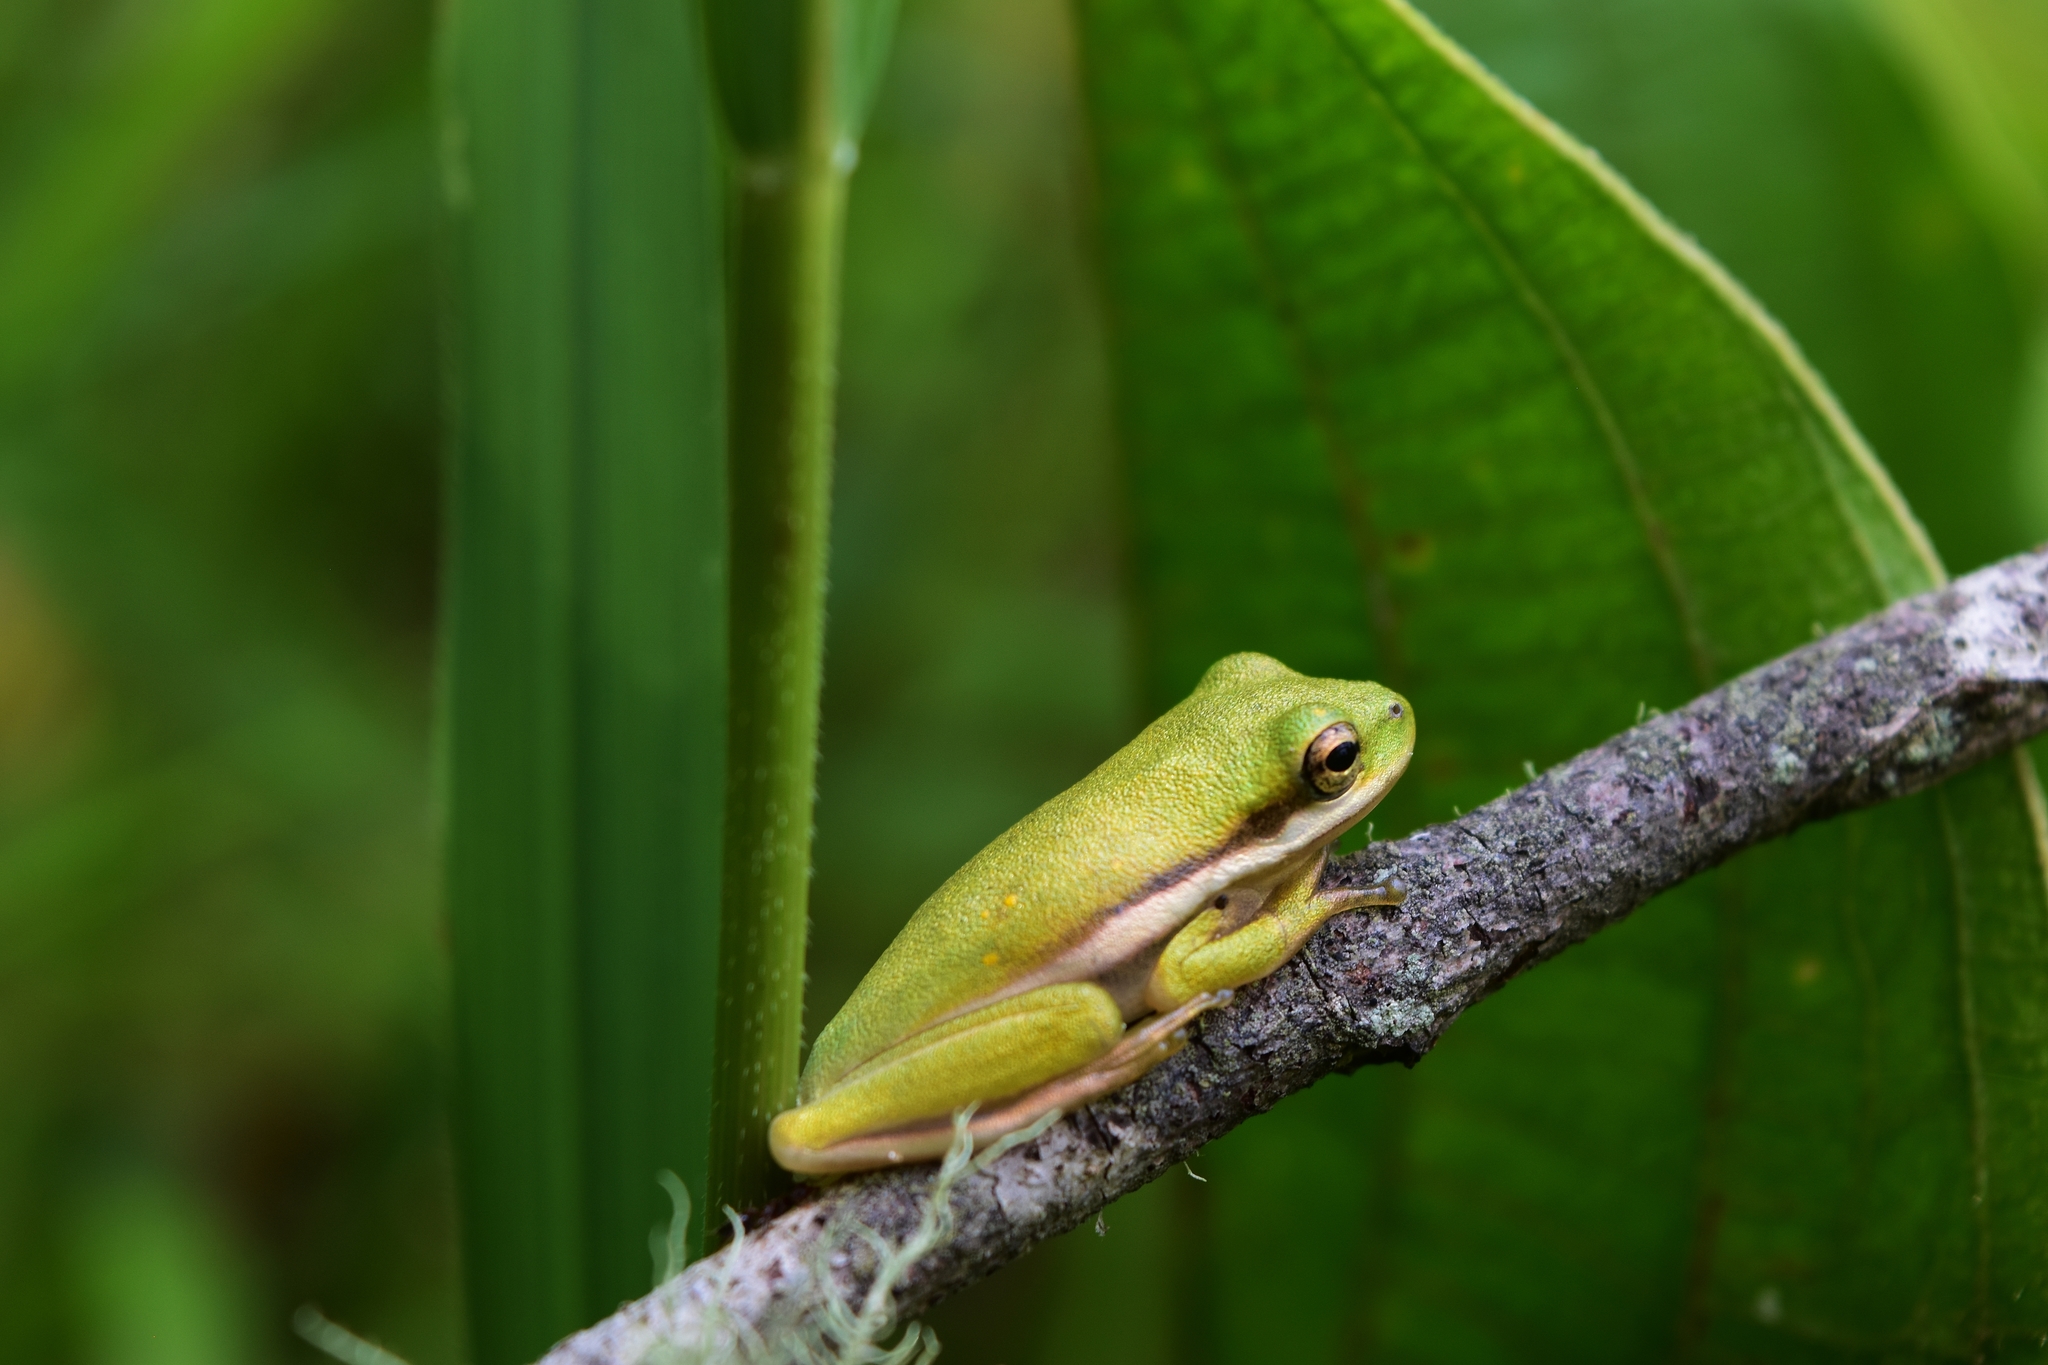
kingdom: Animalia
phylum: Chordata
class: Amphibia
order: Anura
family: Hylidae
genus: Dryophytes
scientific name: Dryophytes cinereus
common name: Green treefrog
